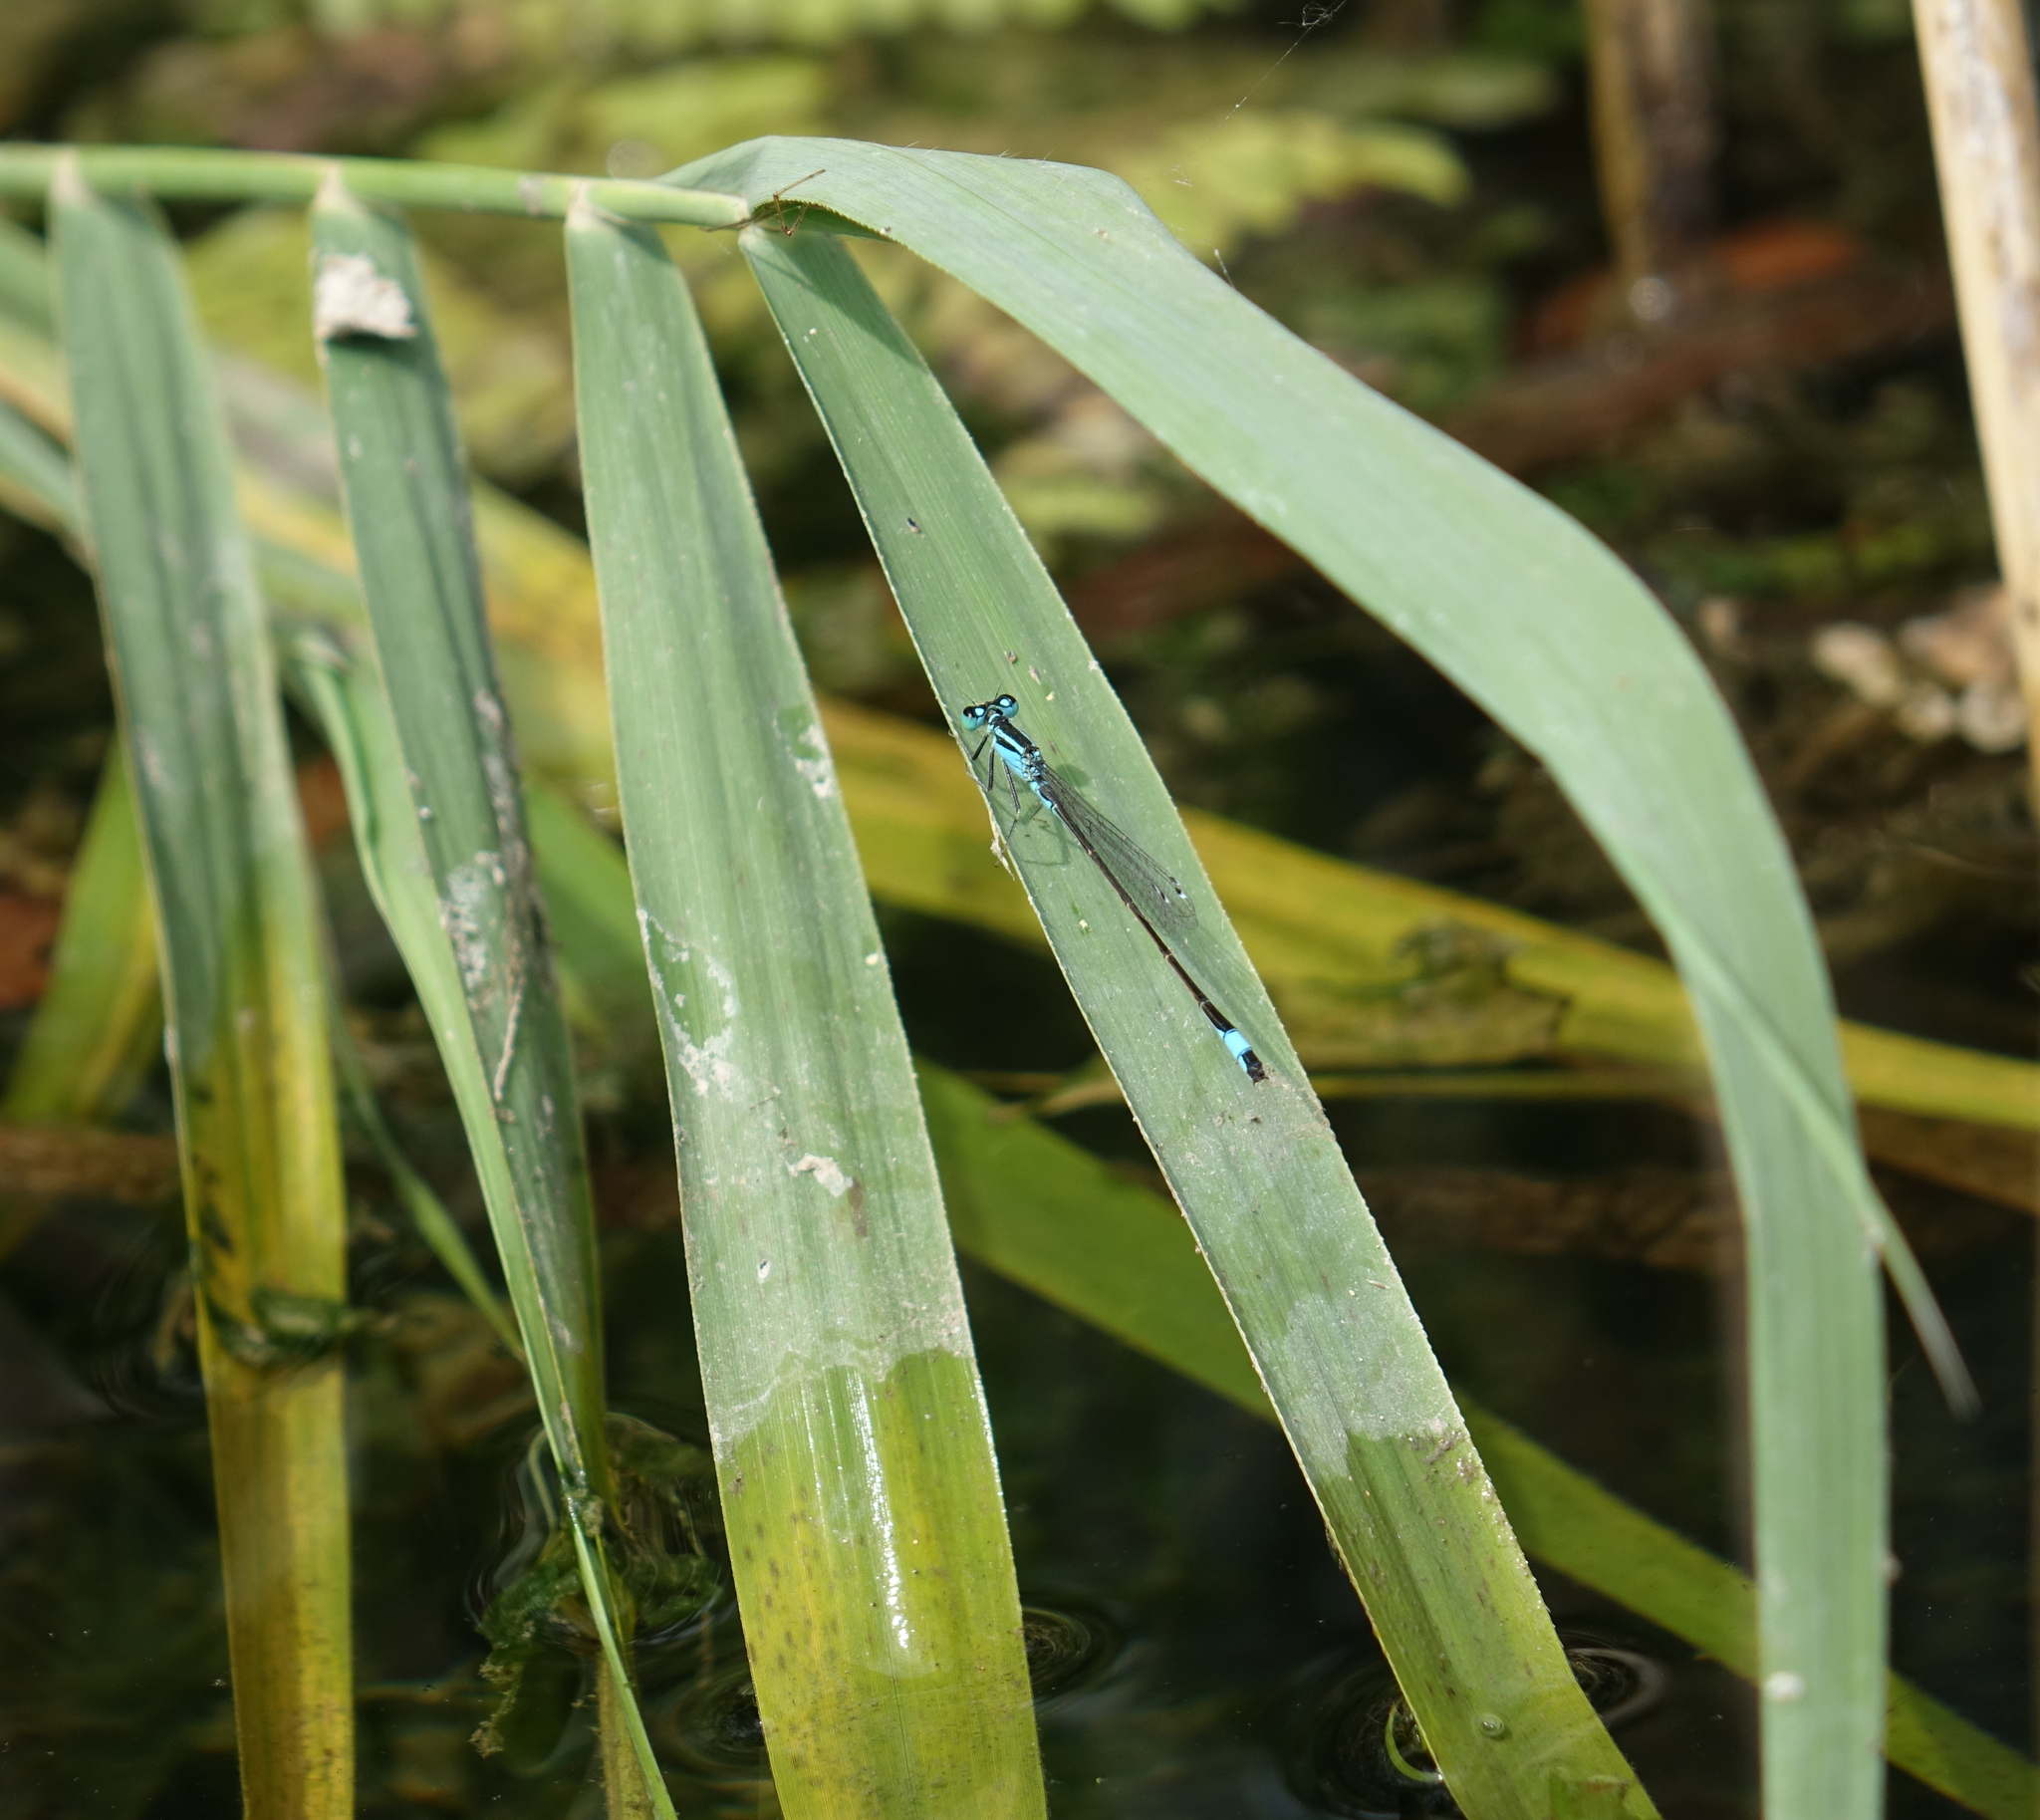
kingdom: Animalia
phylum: Arthropoda
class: Insecta
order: Odonata
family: Coenagrionidae
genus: Ischnura
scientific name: Ischnura elegans
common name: Blue-tailed damselfly
